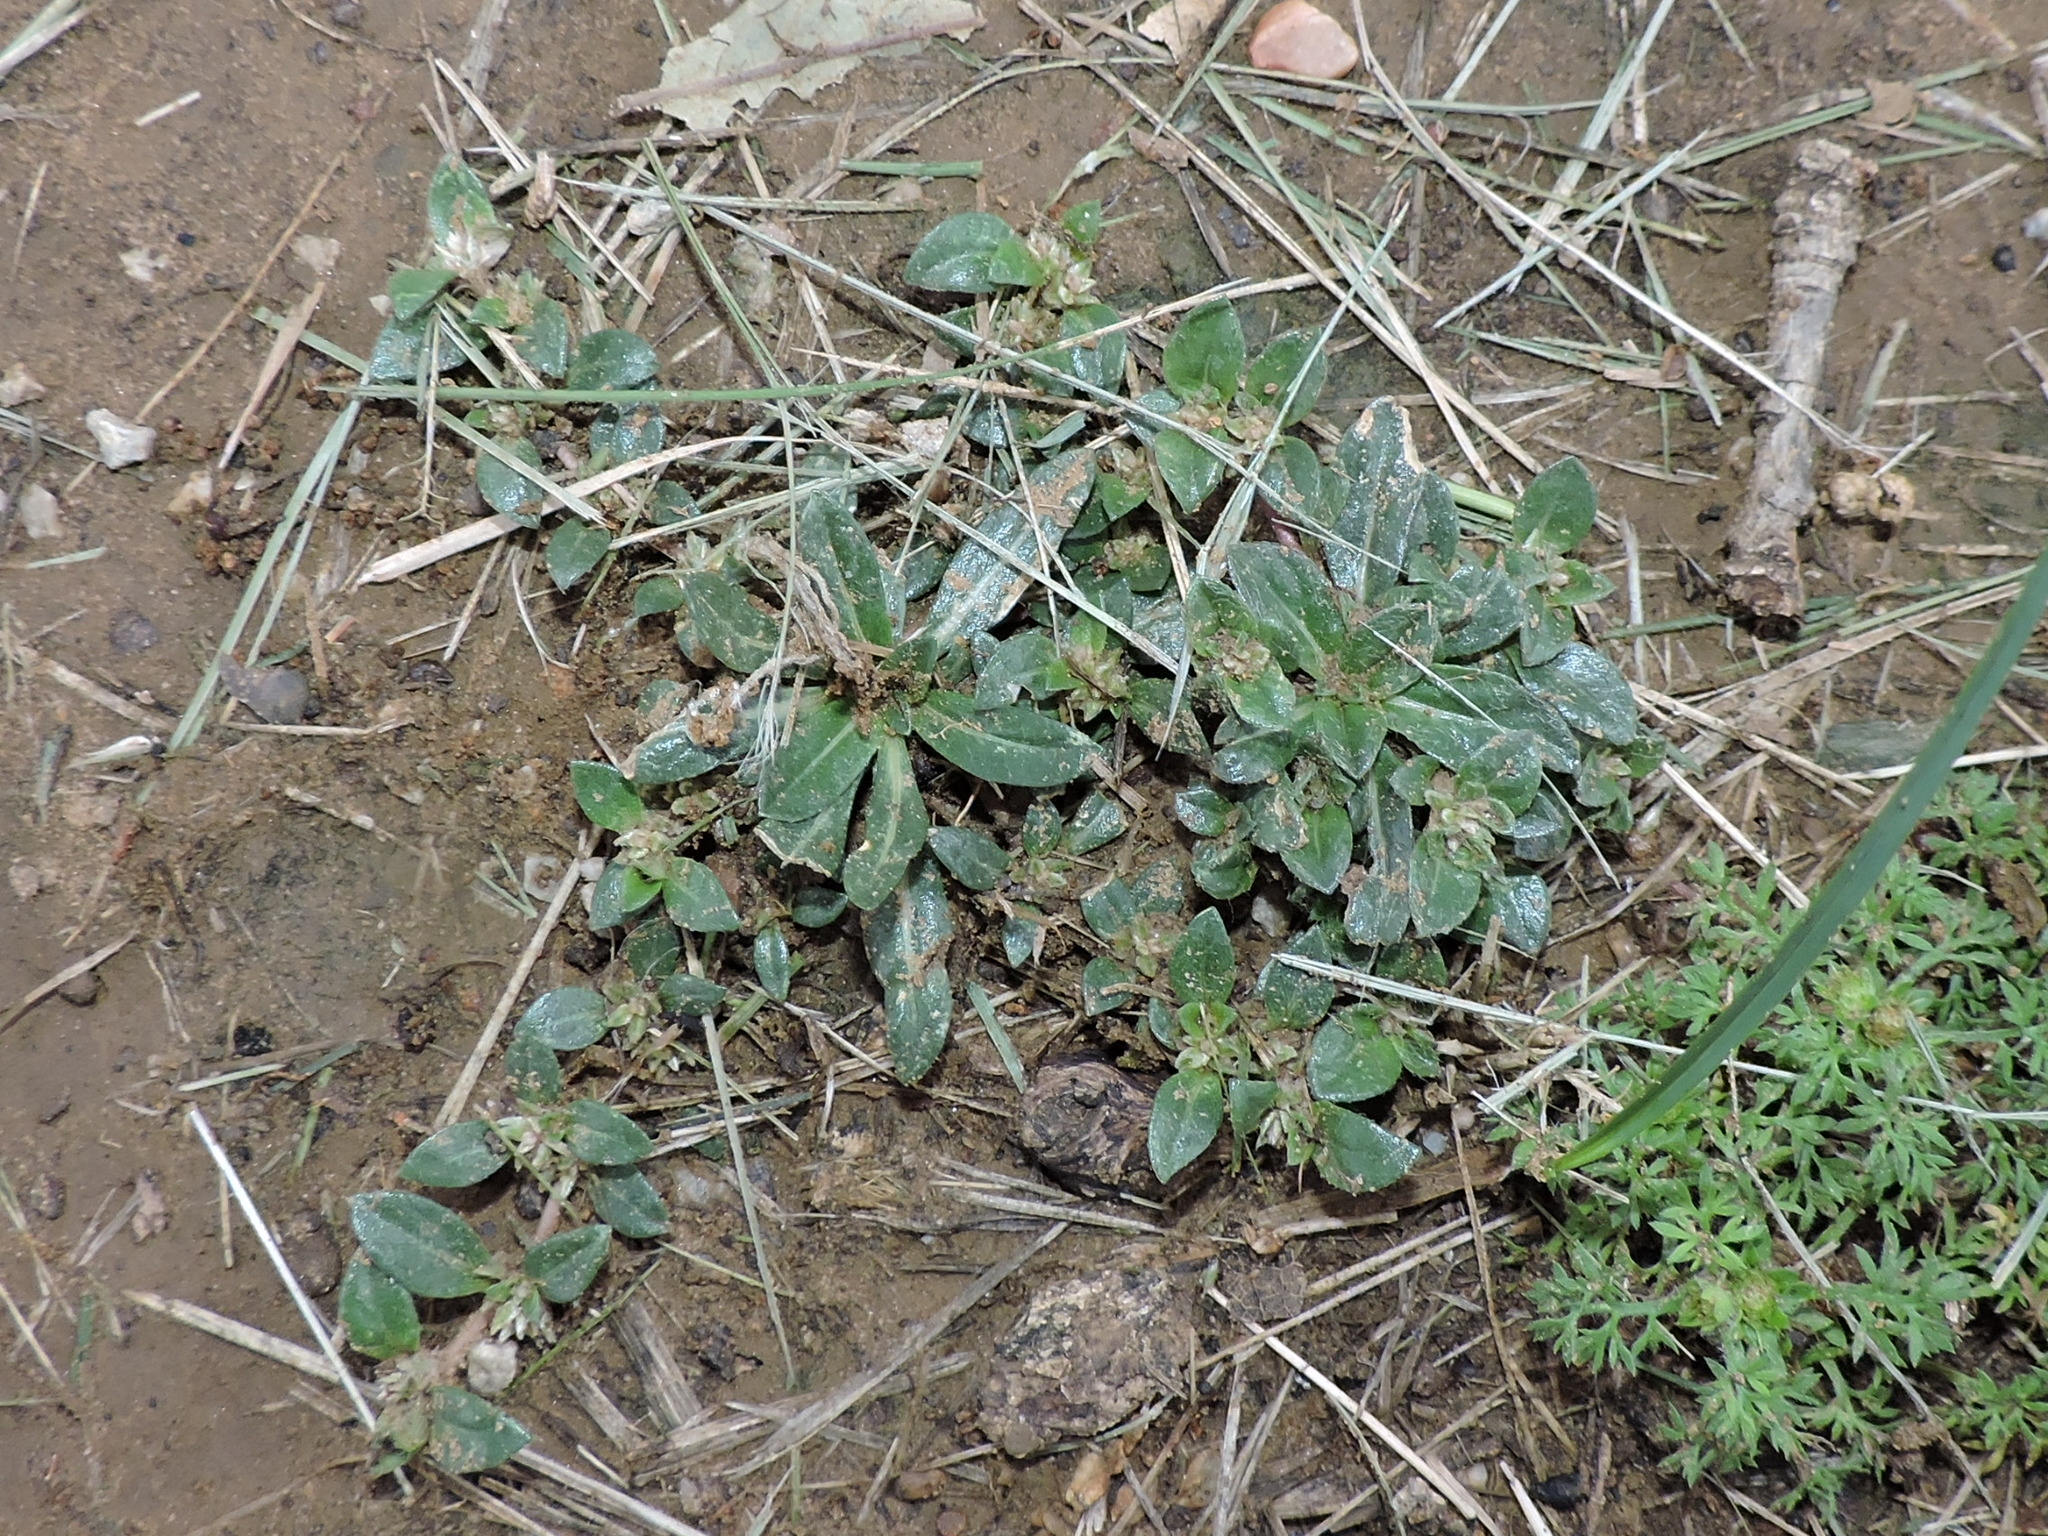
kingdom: Plantae
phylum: Tracheophyta
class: Magnoliopsida
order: Caryophyllales
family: Amaranthaceae
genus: Alternanthera
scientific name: Alternanthera caracasana
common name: Washerwoman
